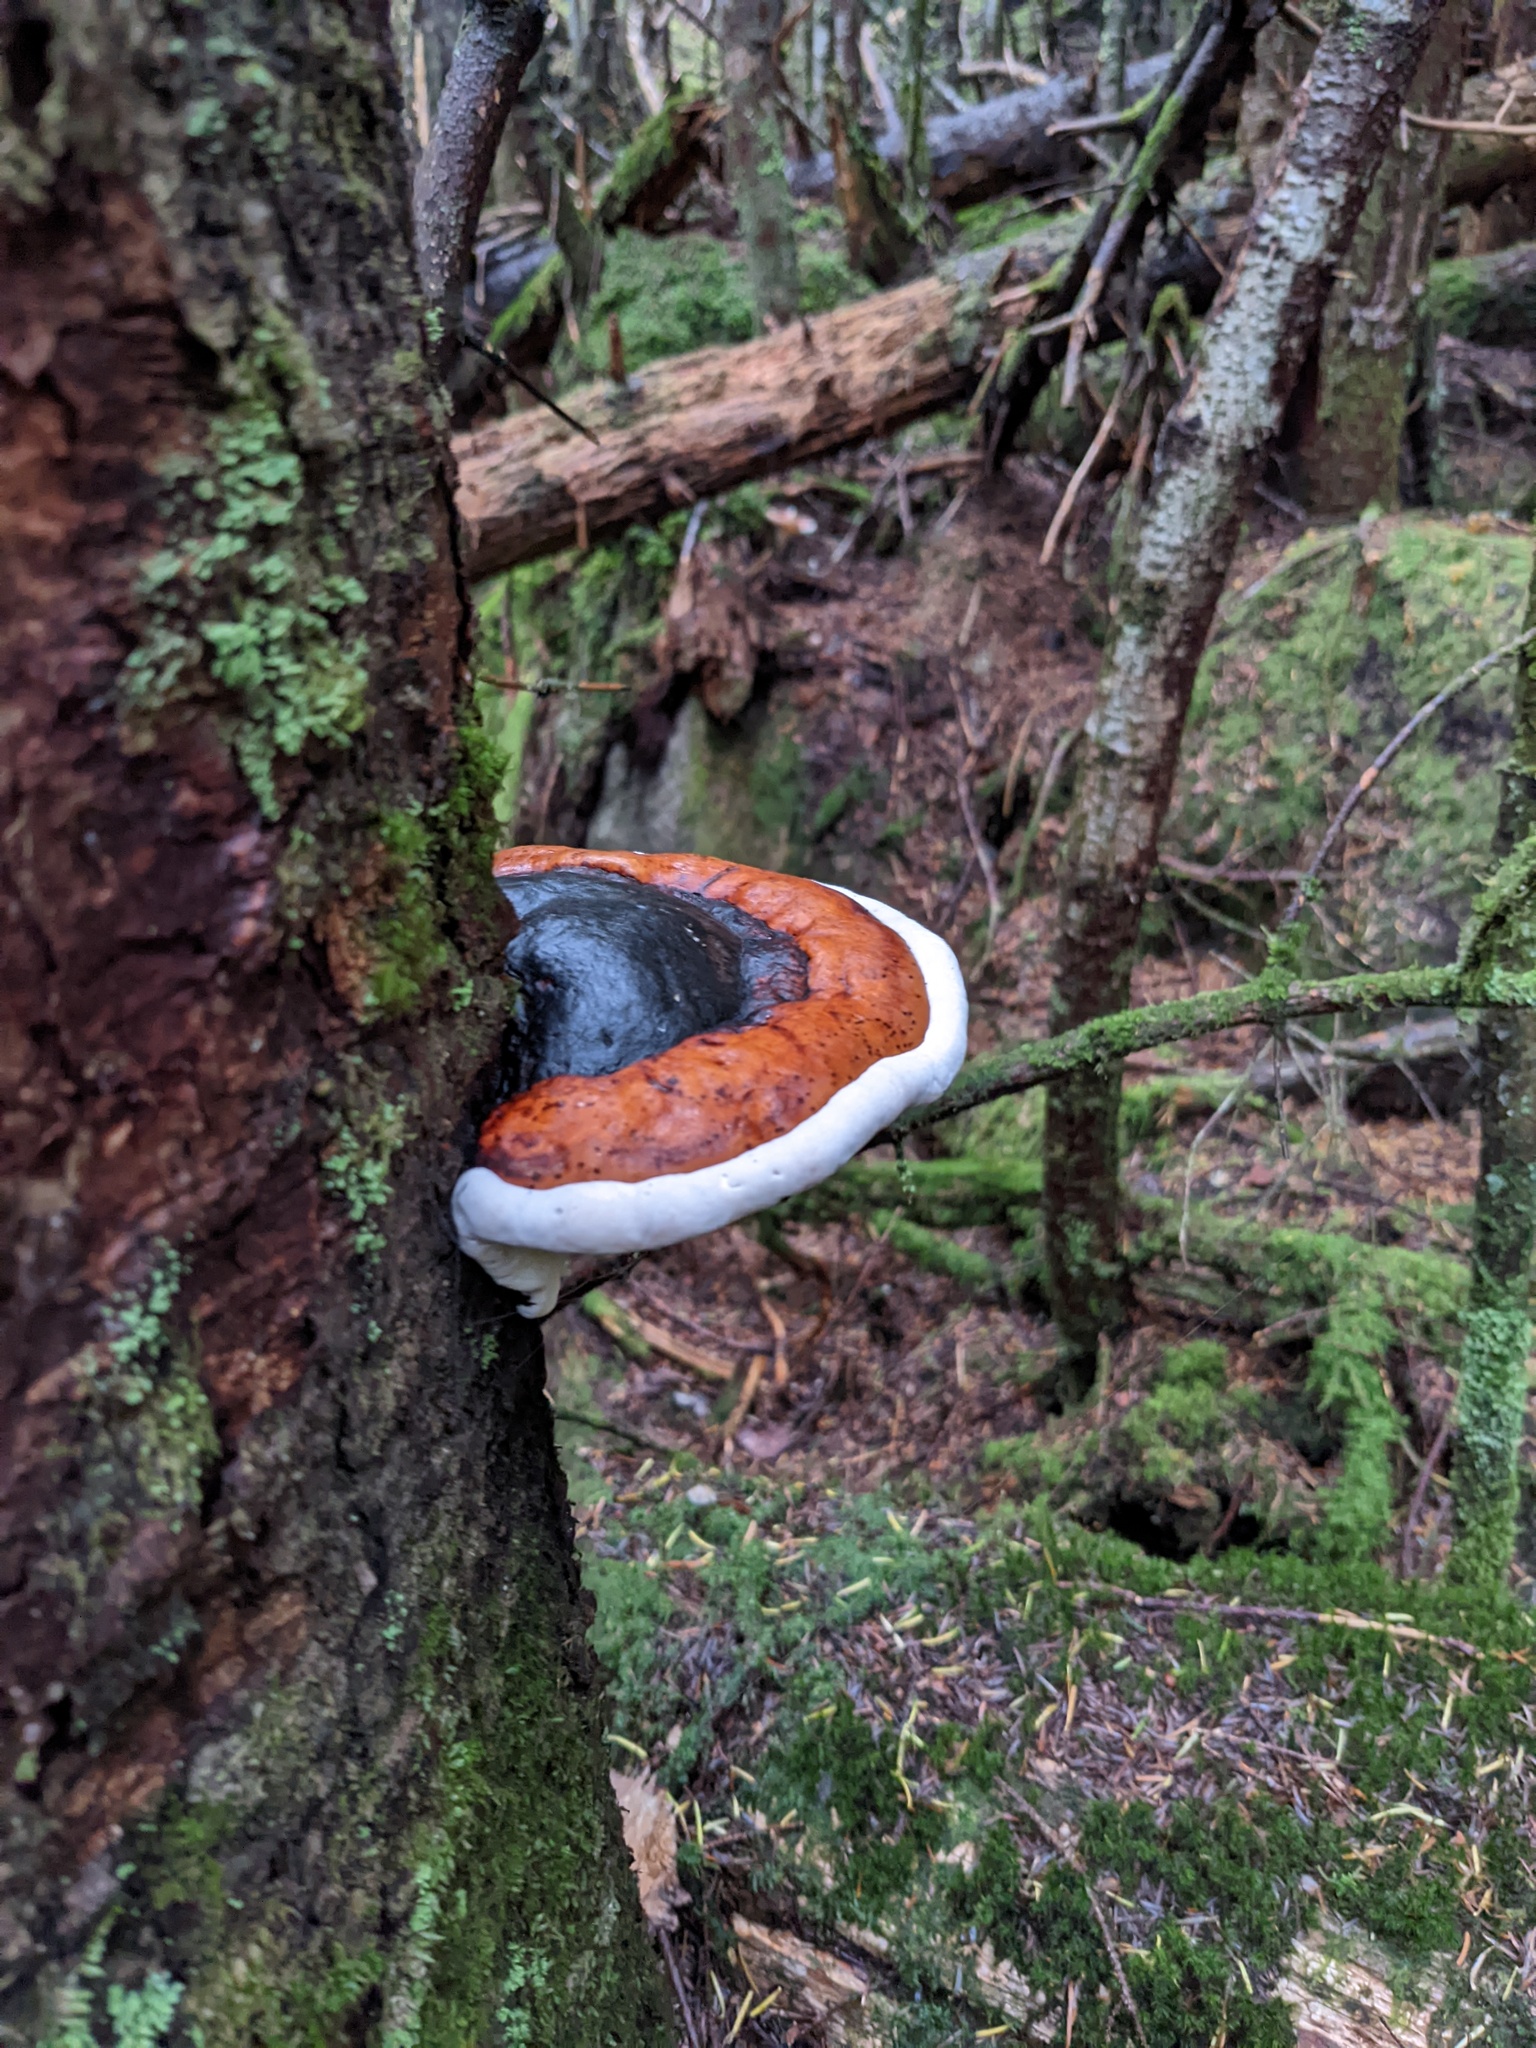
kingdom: Fungi
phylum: Basidiomycota
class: Agaricomycetes
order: Polyporales
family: Fomitopsidaceae
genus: Fomitopsis
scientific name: Fomitopsis mounceae
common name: Northern red belt
